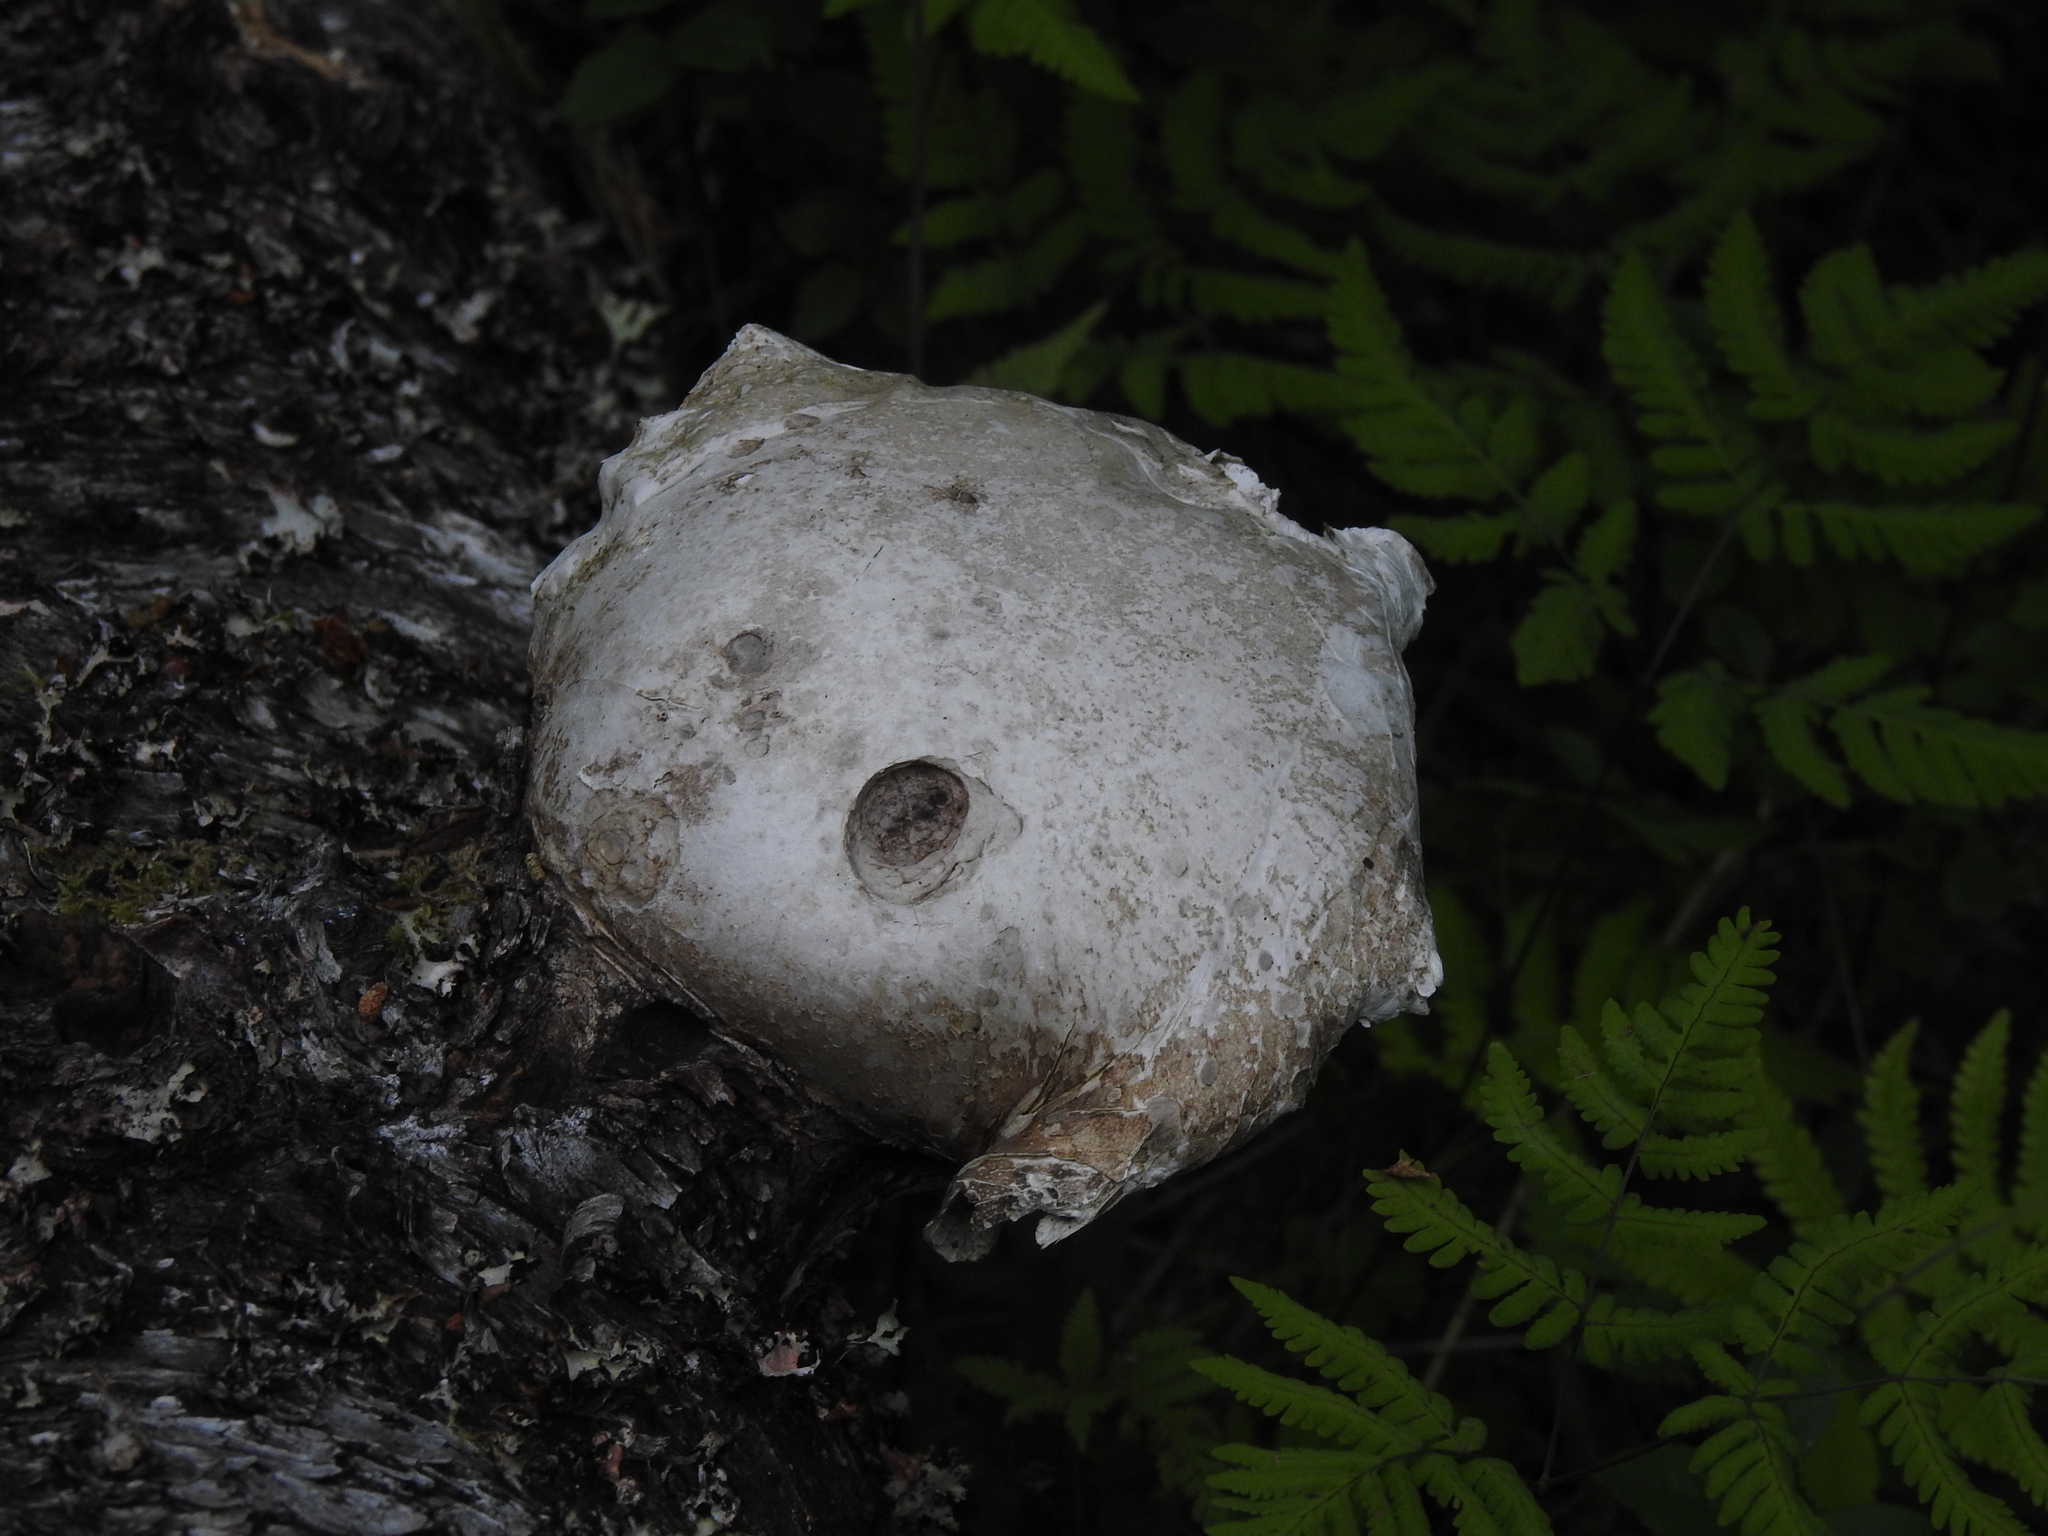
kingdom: Fungi
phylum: Basidiomycota
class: Agaricomycetes
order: Polyporales
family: Fomitopsidaceae
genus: Fomitopsis
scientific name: Fomitopsis betulina
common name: Birch polypore
